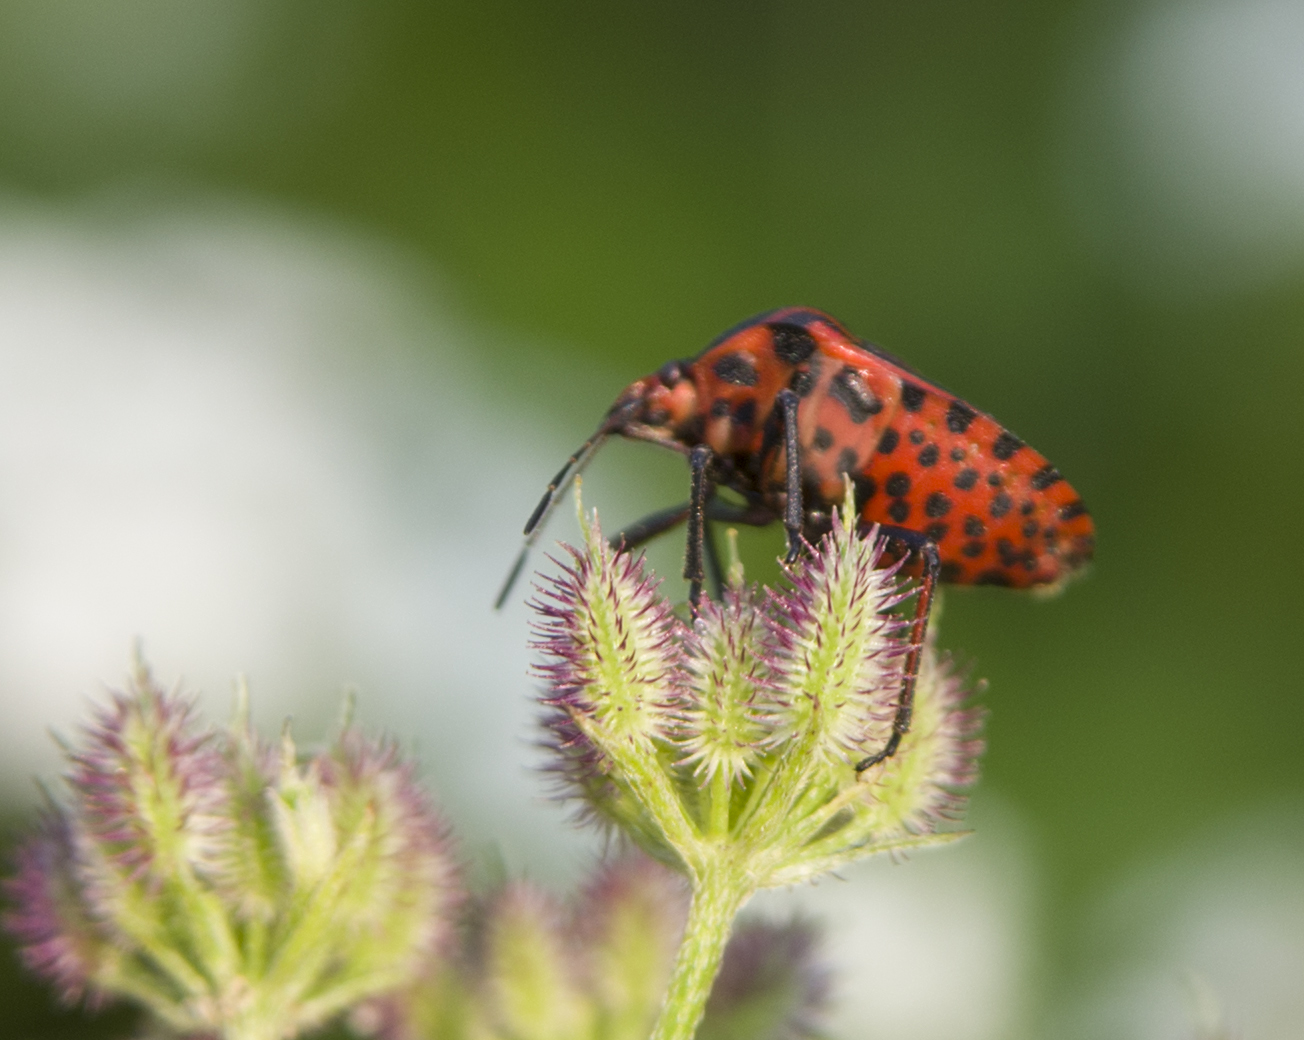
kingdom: Animalia
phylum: Arthropoda
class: Insecta
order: Hemiptera
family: Pentatomidae
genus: Graphosoma
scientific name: Graphosoma italicum
